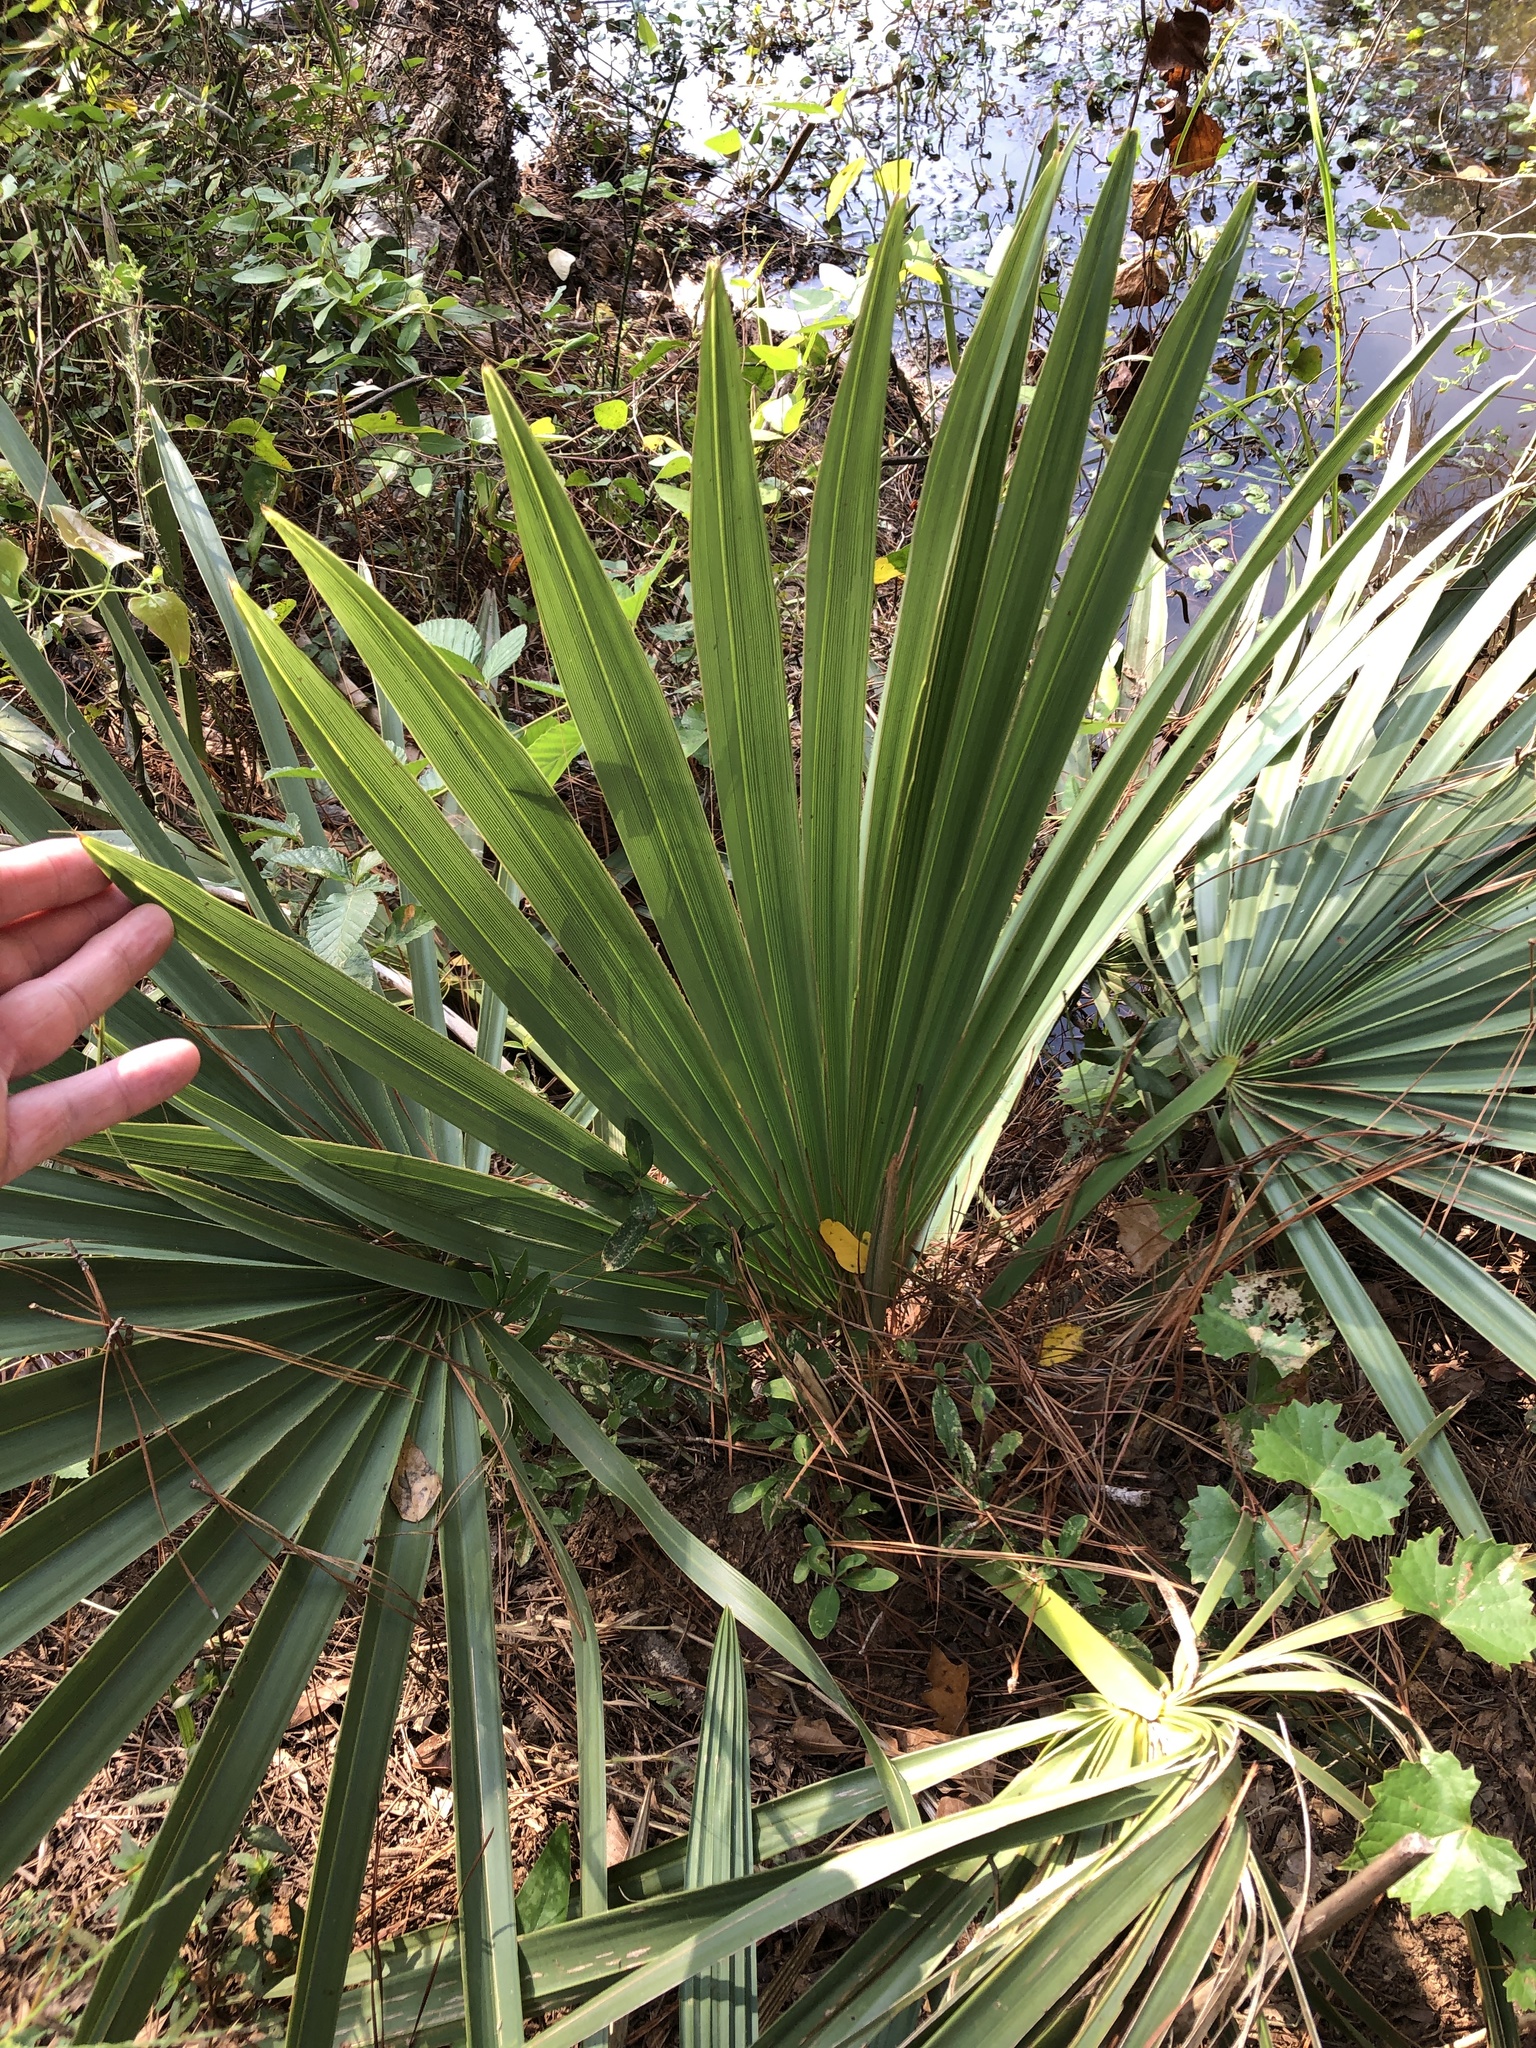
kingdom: Plantae
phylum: Tracheophyta
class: Liliopsida
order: Arecales
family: Arecaceae
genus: Sabal
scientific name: Sabal minor
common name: Dwarf palmetto
